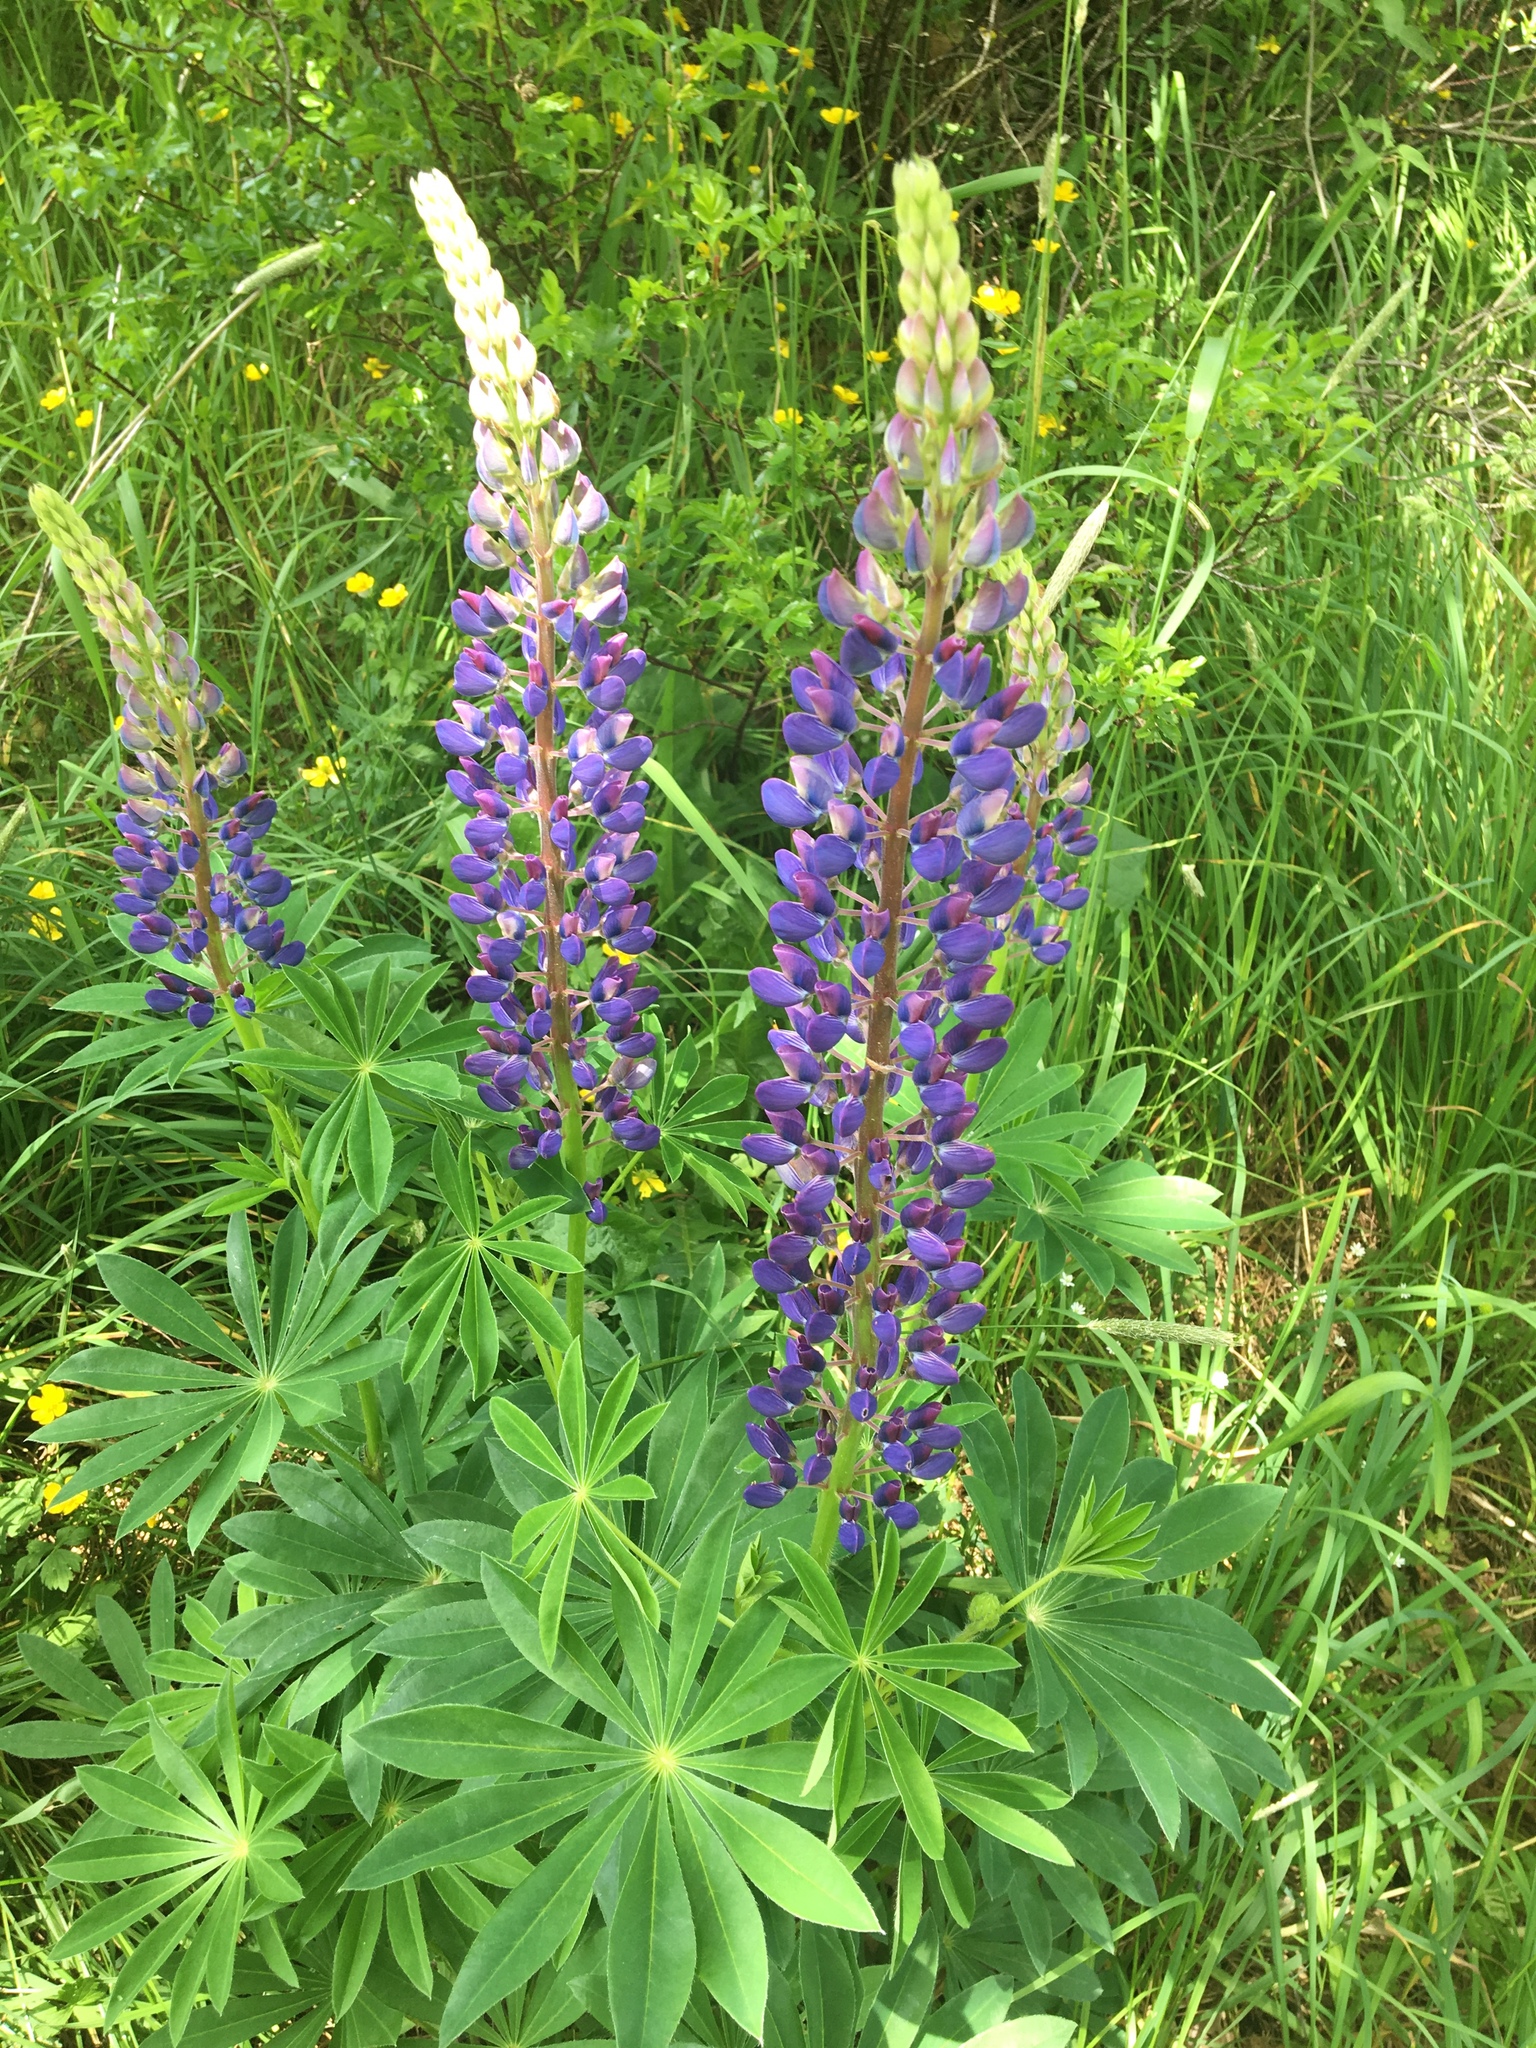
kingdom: Plantae
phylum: Tracheophyta
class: Magnoliopsida
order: Fabales
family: Fabaceae
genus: Lupinus
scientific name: Lupinus polyphyllus
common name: Garden lupin
